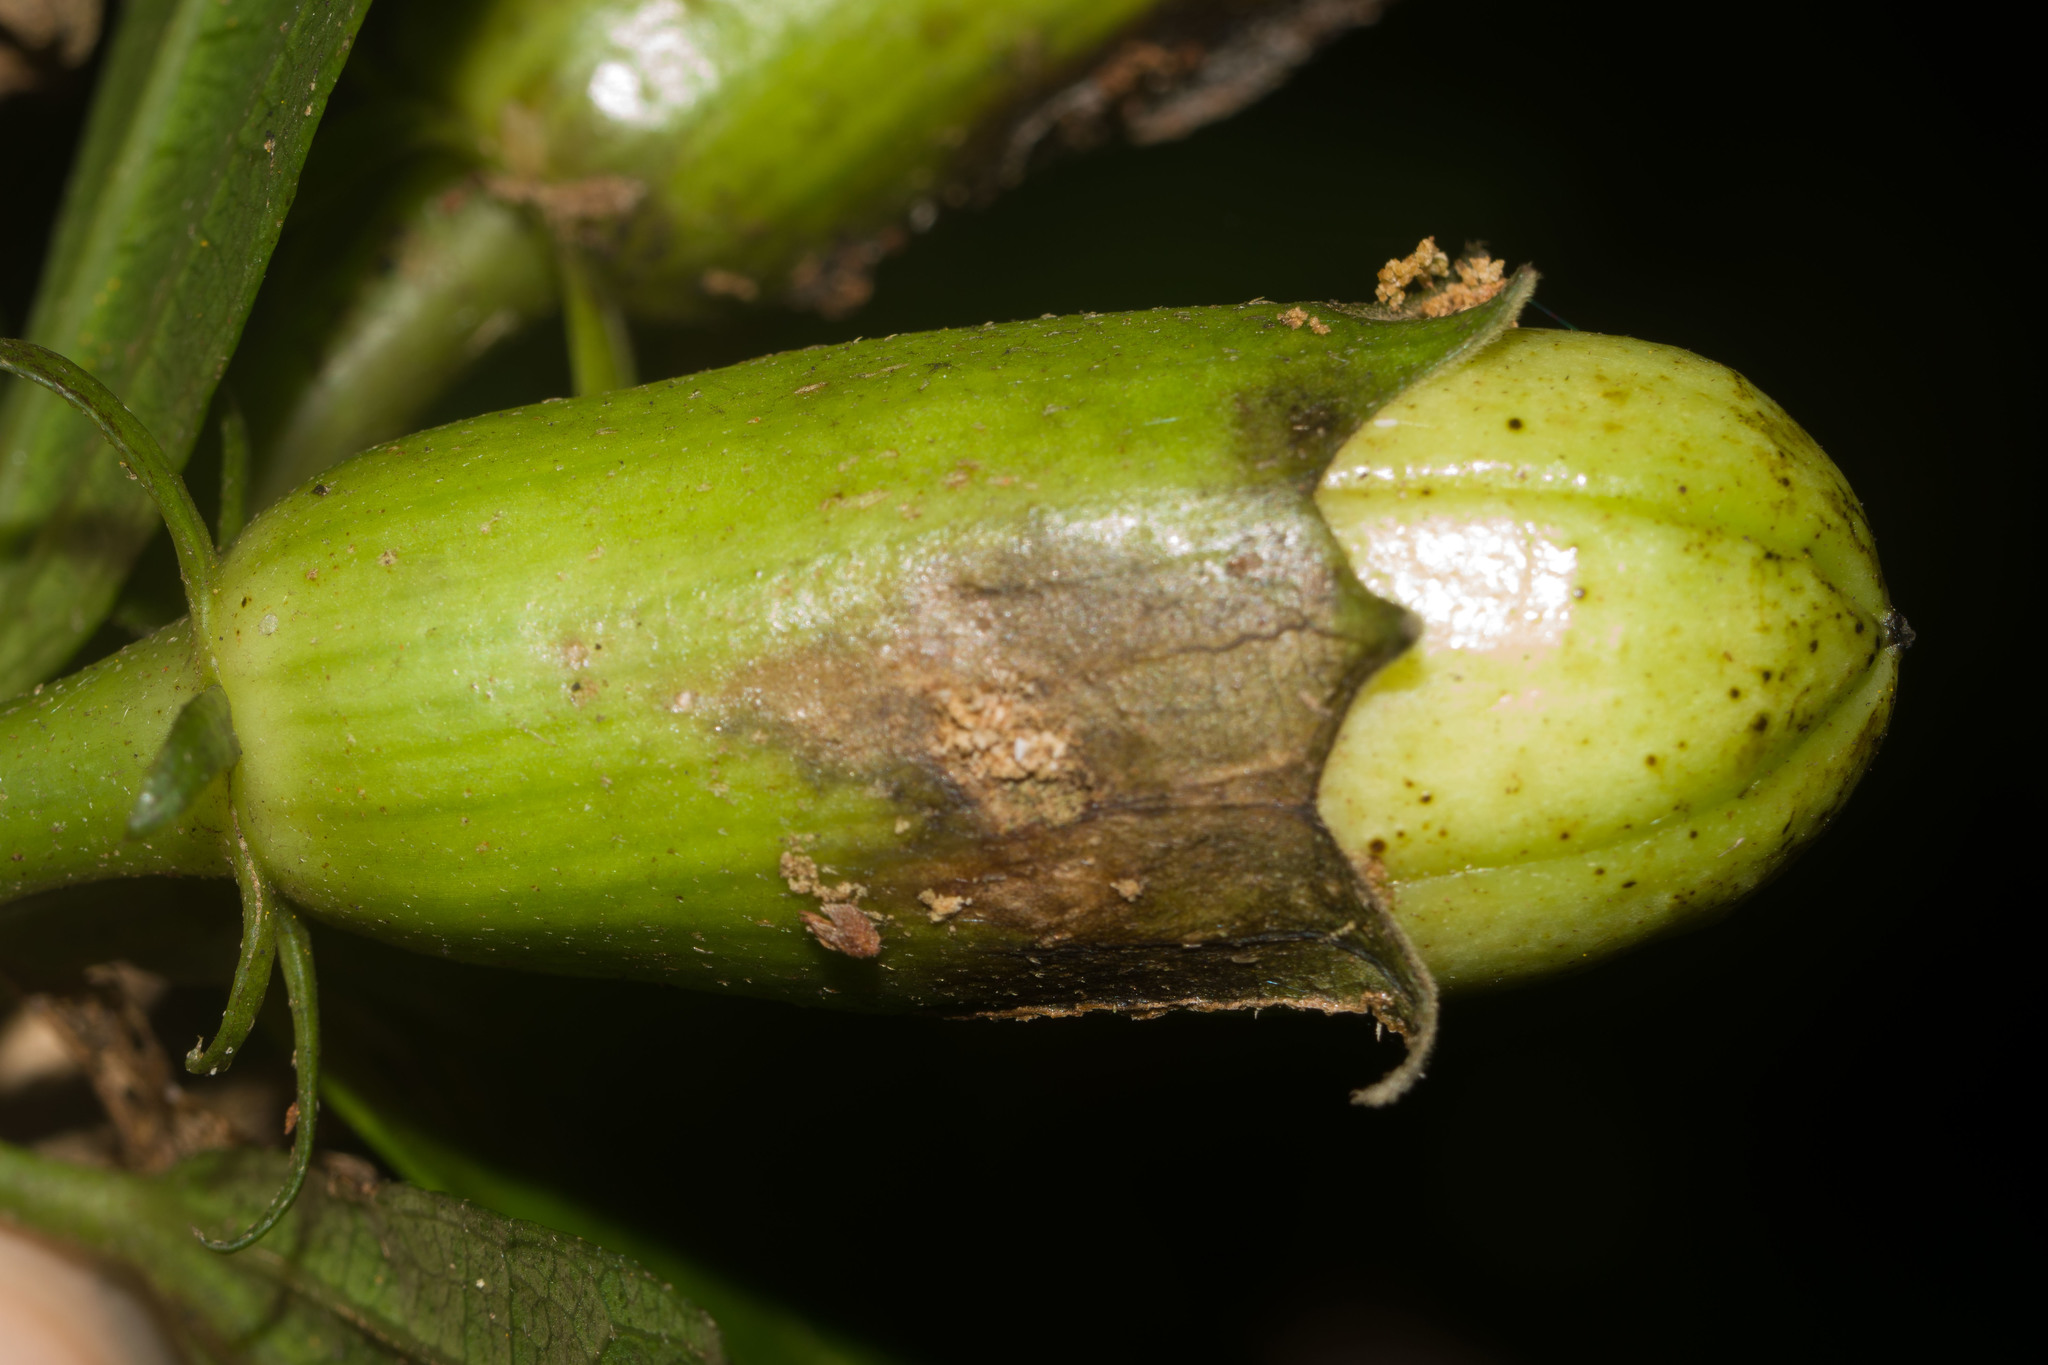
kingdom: Plantae
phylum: Tracheophyta
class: Magnoliopsida
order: Malvales
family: Malvaceae
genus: Hibiscus
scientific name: Hibiscus arnottianus
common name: White molokai hibiscus
